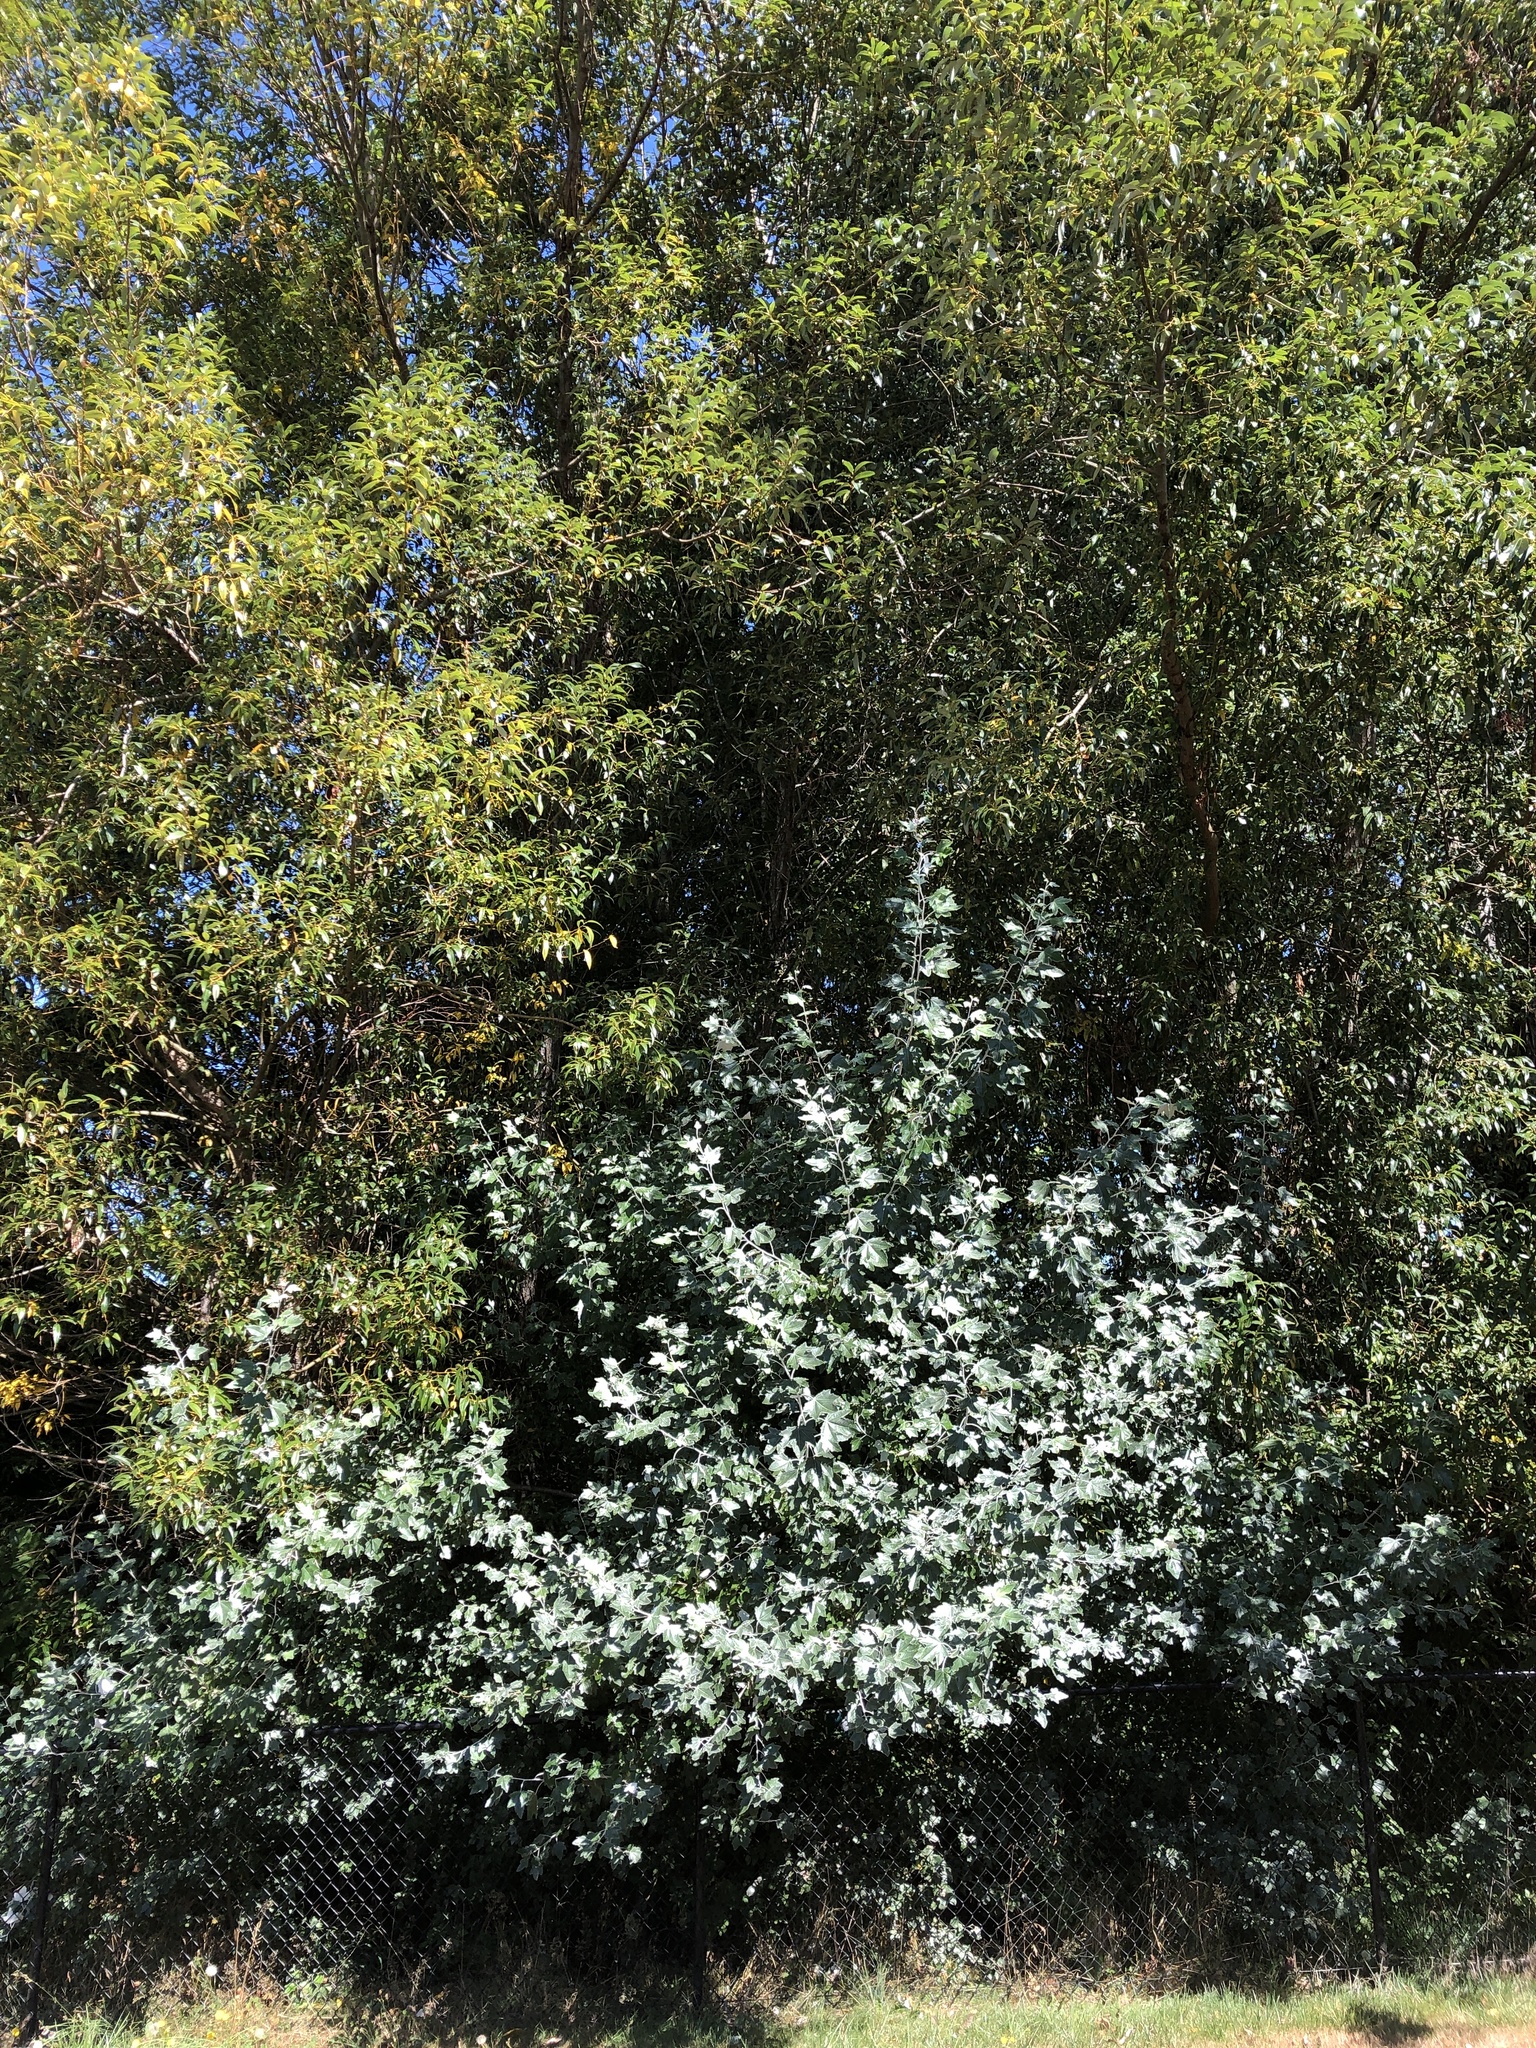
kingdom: Plantae
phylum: Tracheophyta
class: Magnoliopsida
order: Malpighiales
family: Salicaceae
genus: Populus
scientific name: Populus alba
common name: White poplar
